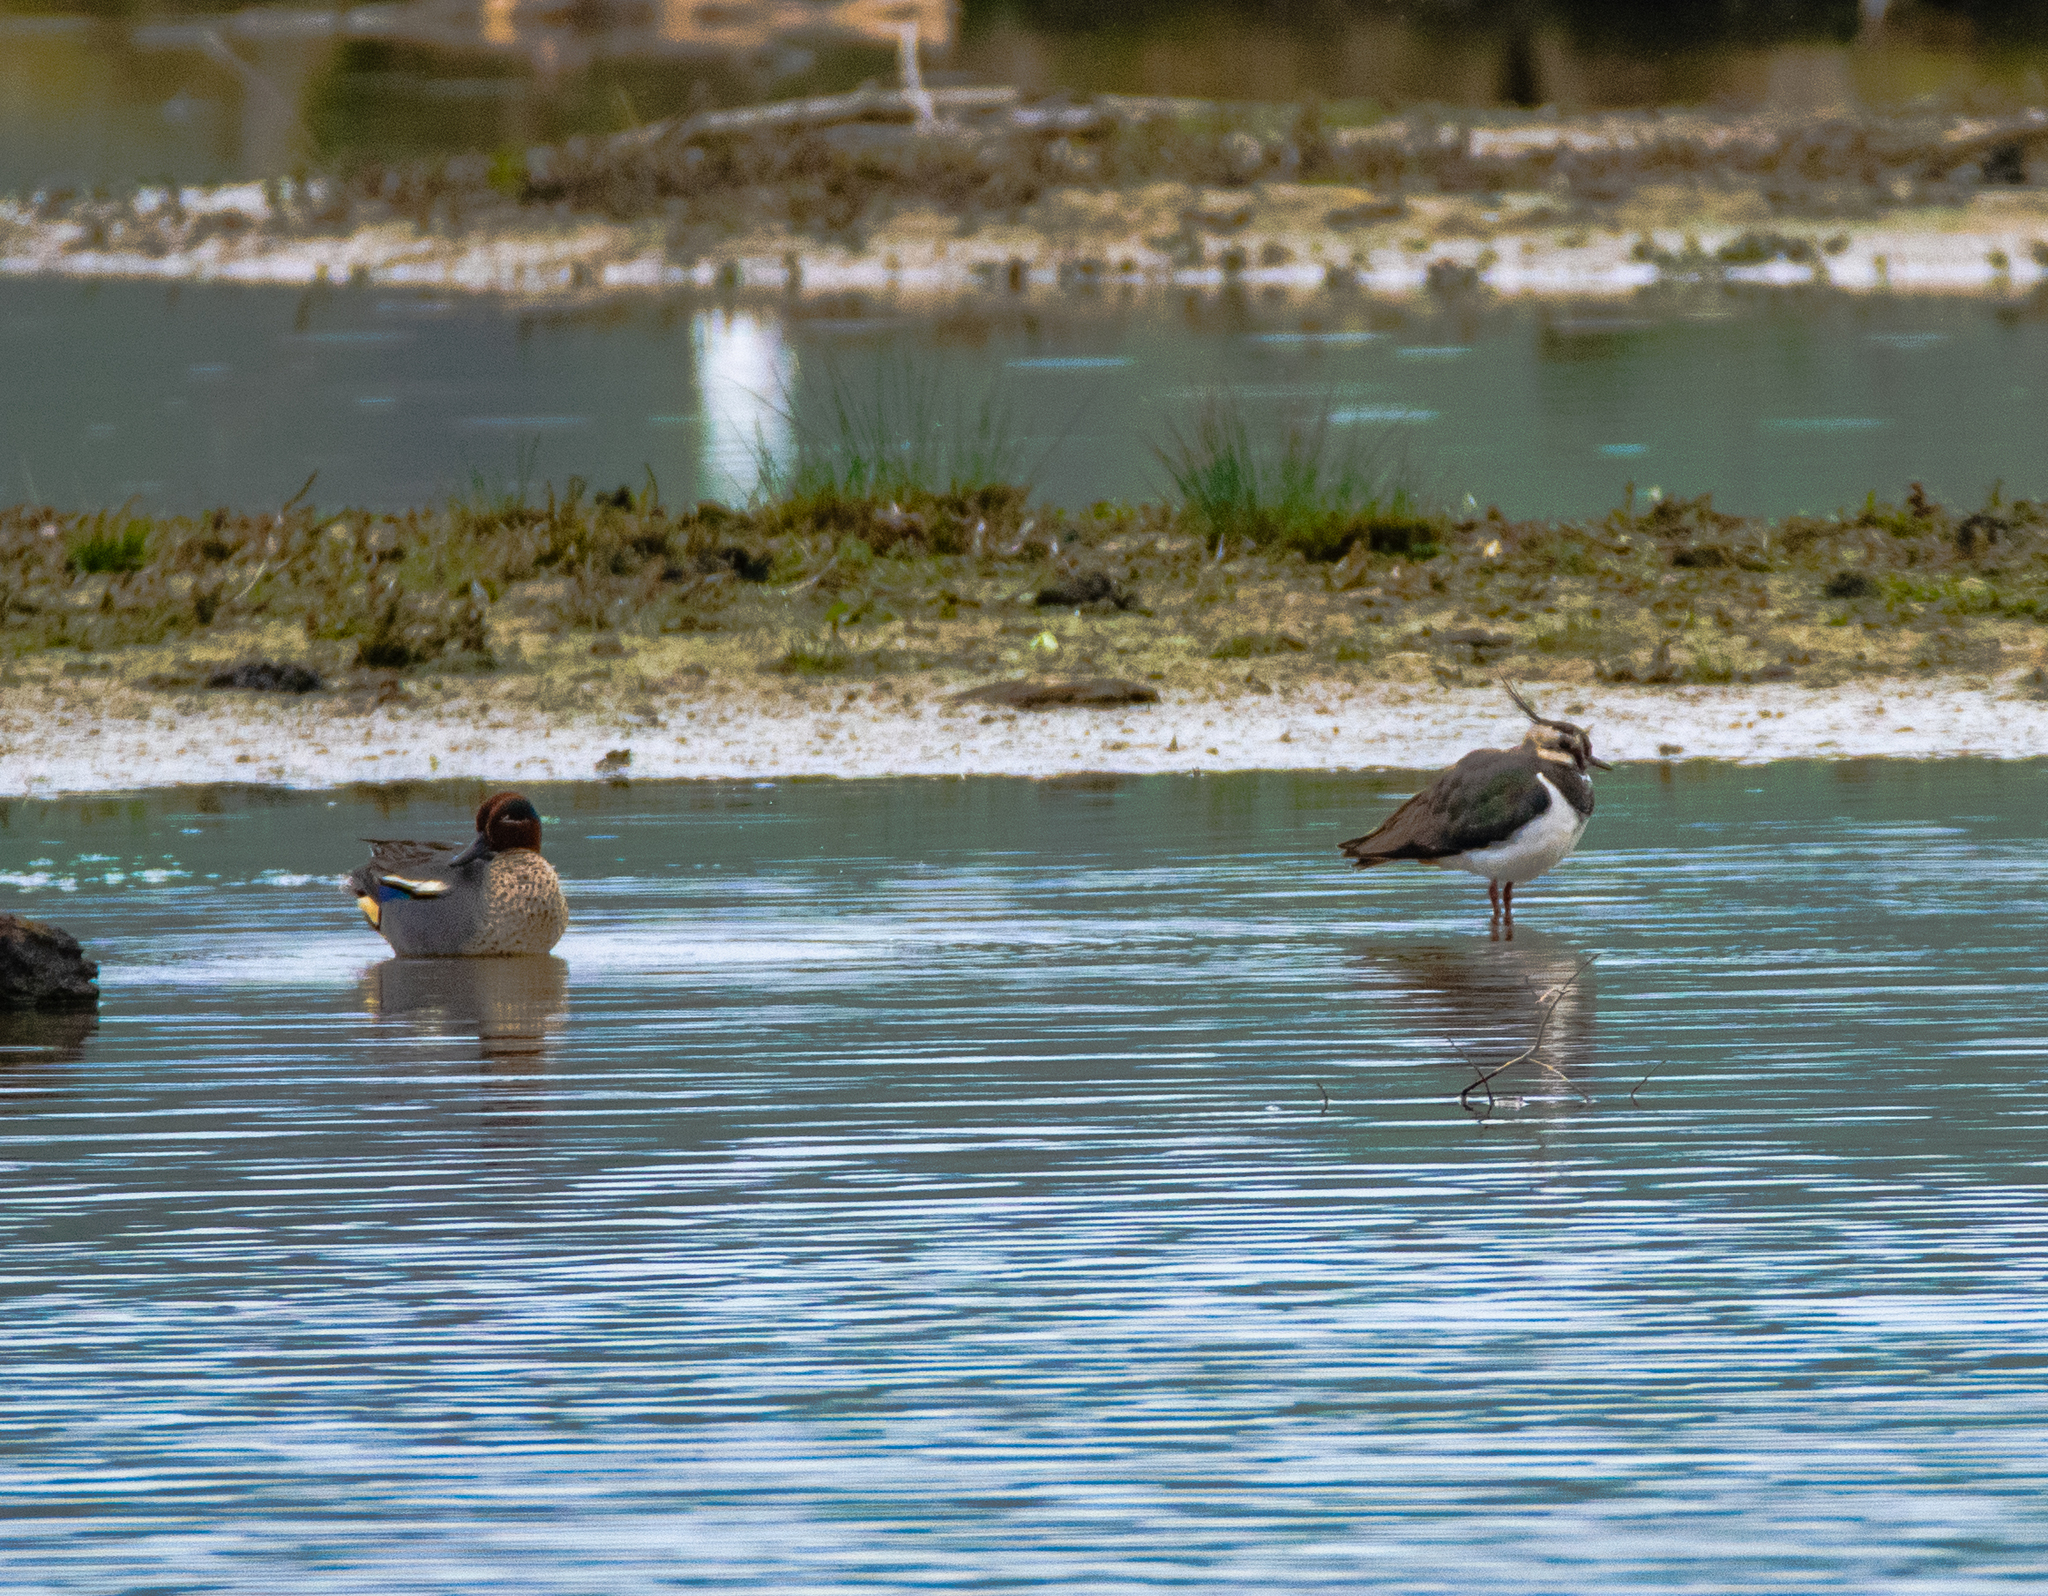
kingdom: Animalia
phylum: Chordata
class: Aves
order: Charadriiformes
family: Charadriidae
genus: Vanellus
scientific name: Vanellus vanellus
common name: Northern lapwing
